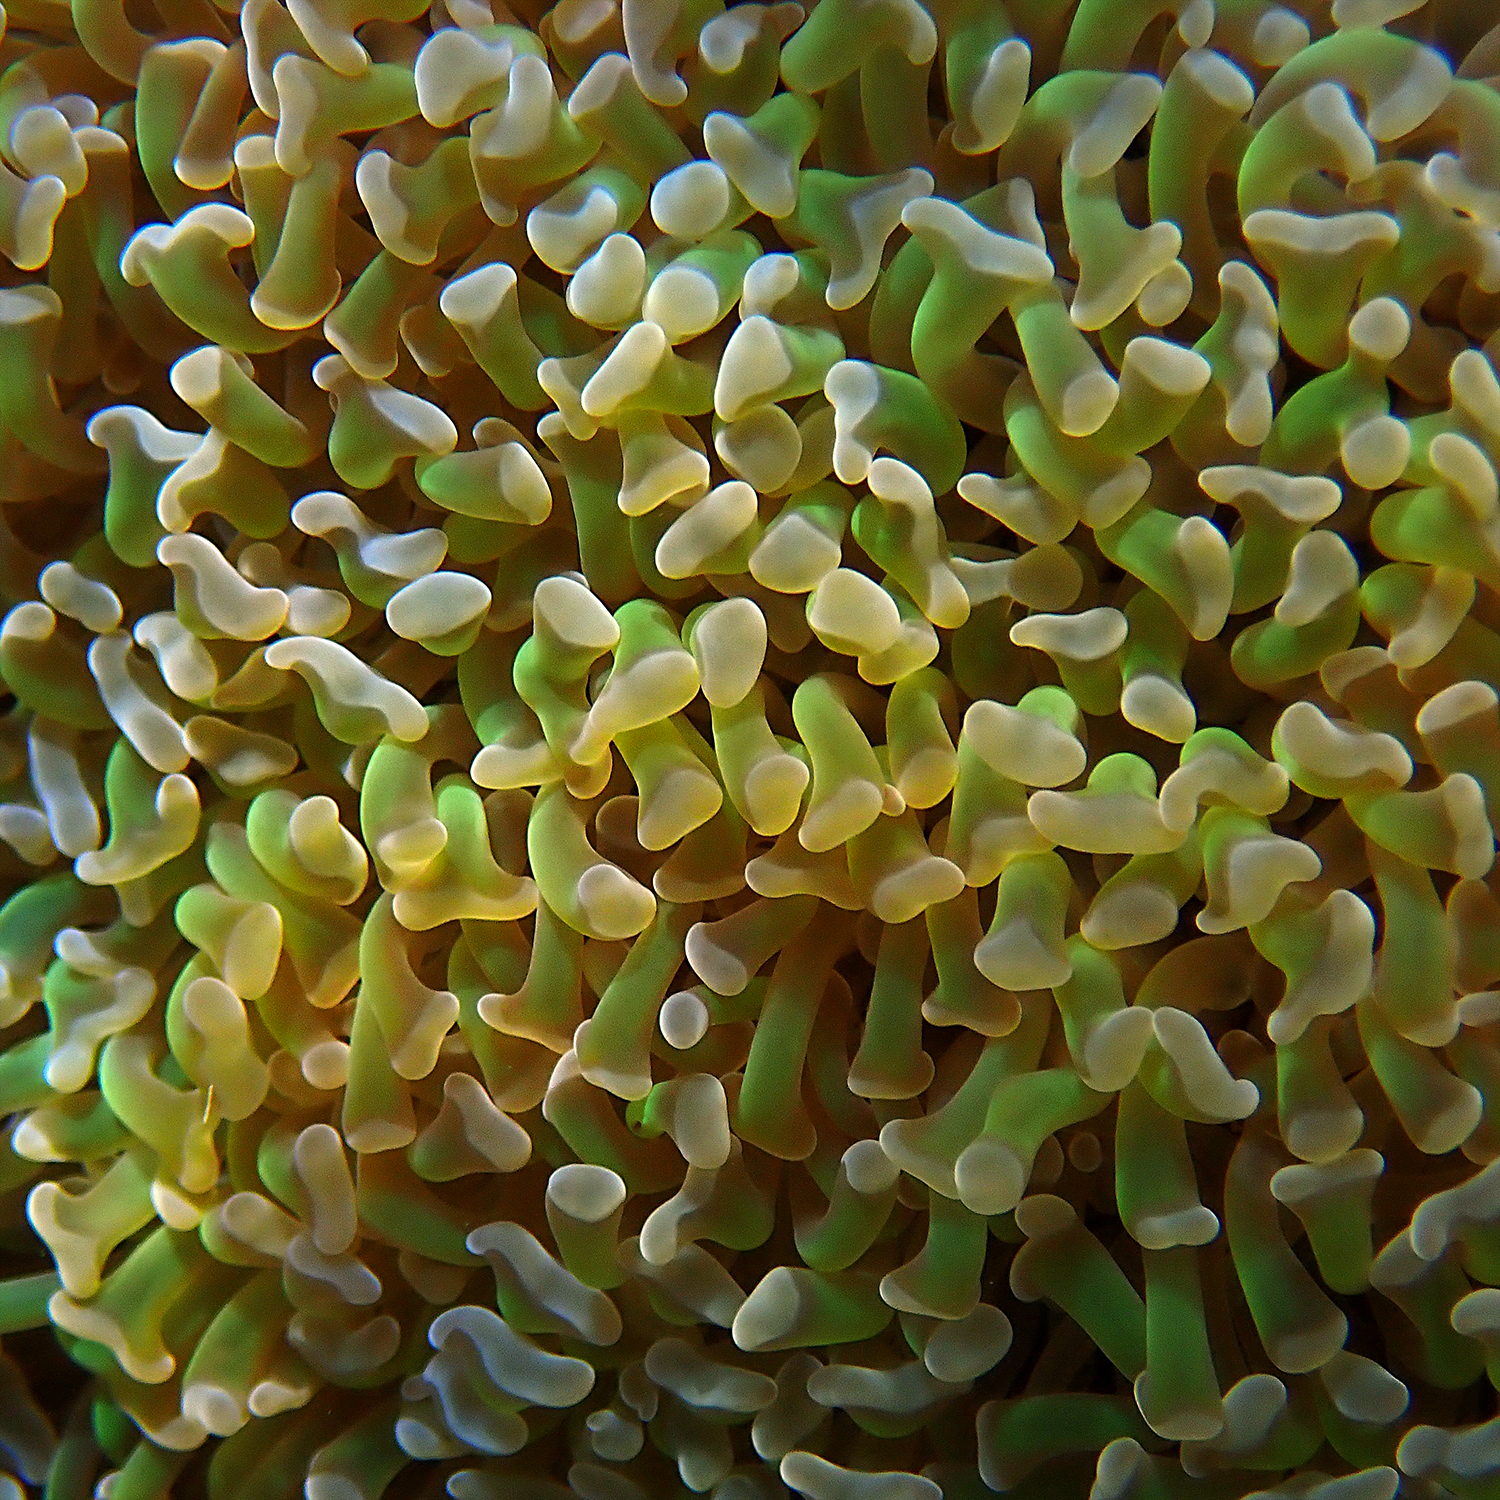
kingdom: Animalia
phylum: Cnidaria
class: Anthozoa
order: Scleractinia
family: Euphylliidae
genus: Fimbriaphyllia
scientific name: Fimbriaphyllia ancora
